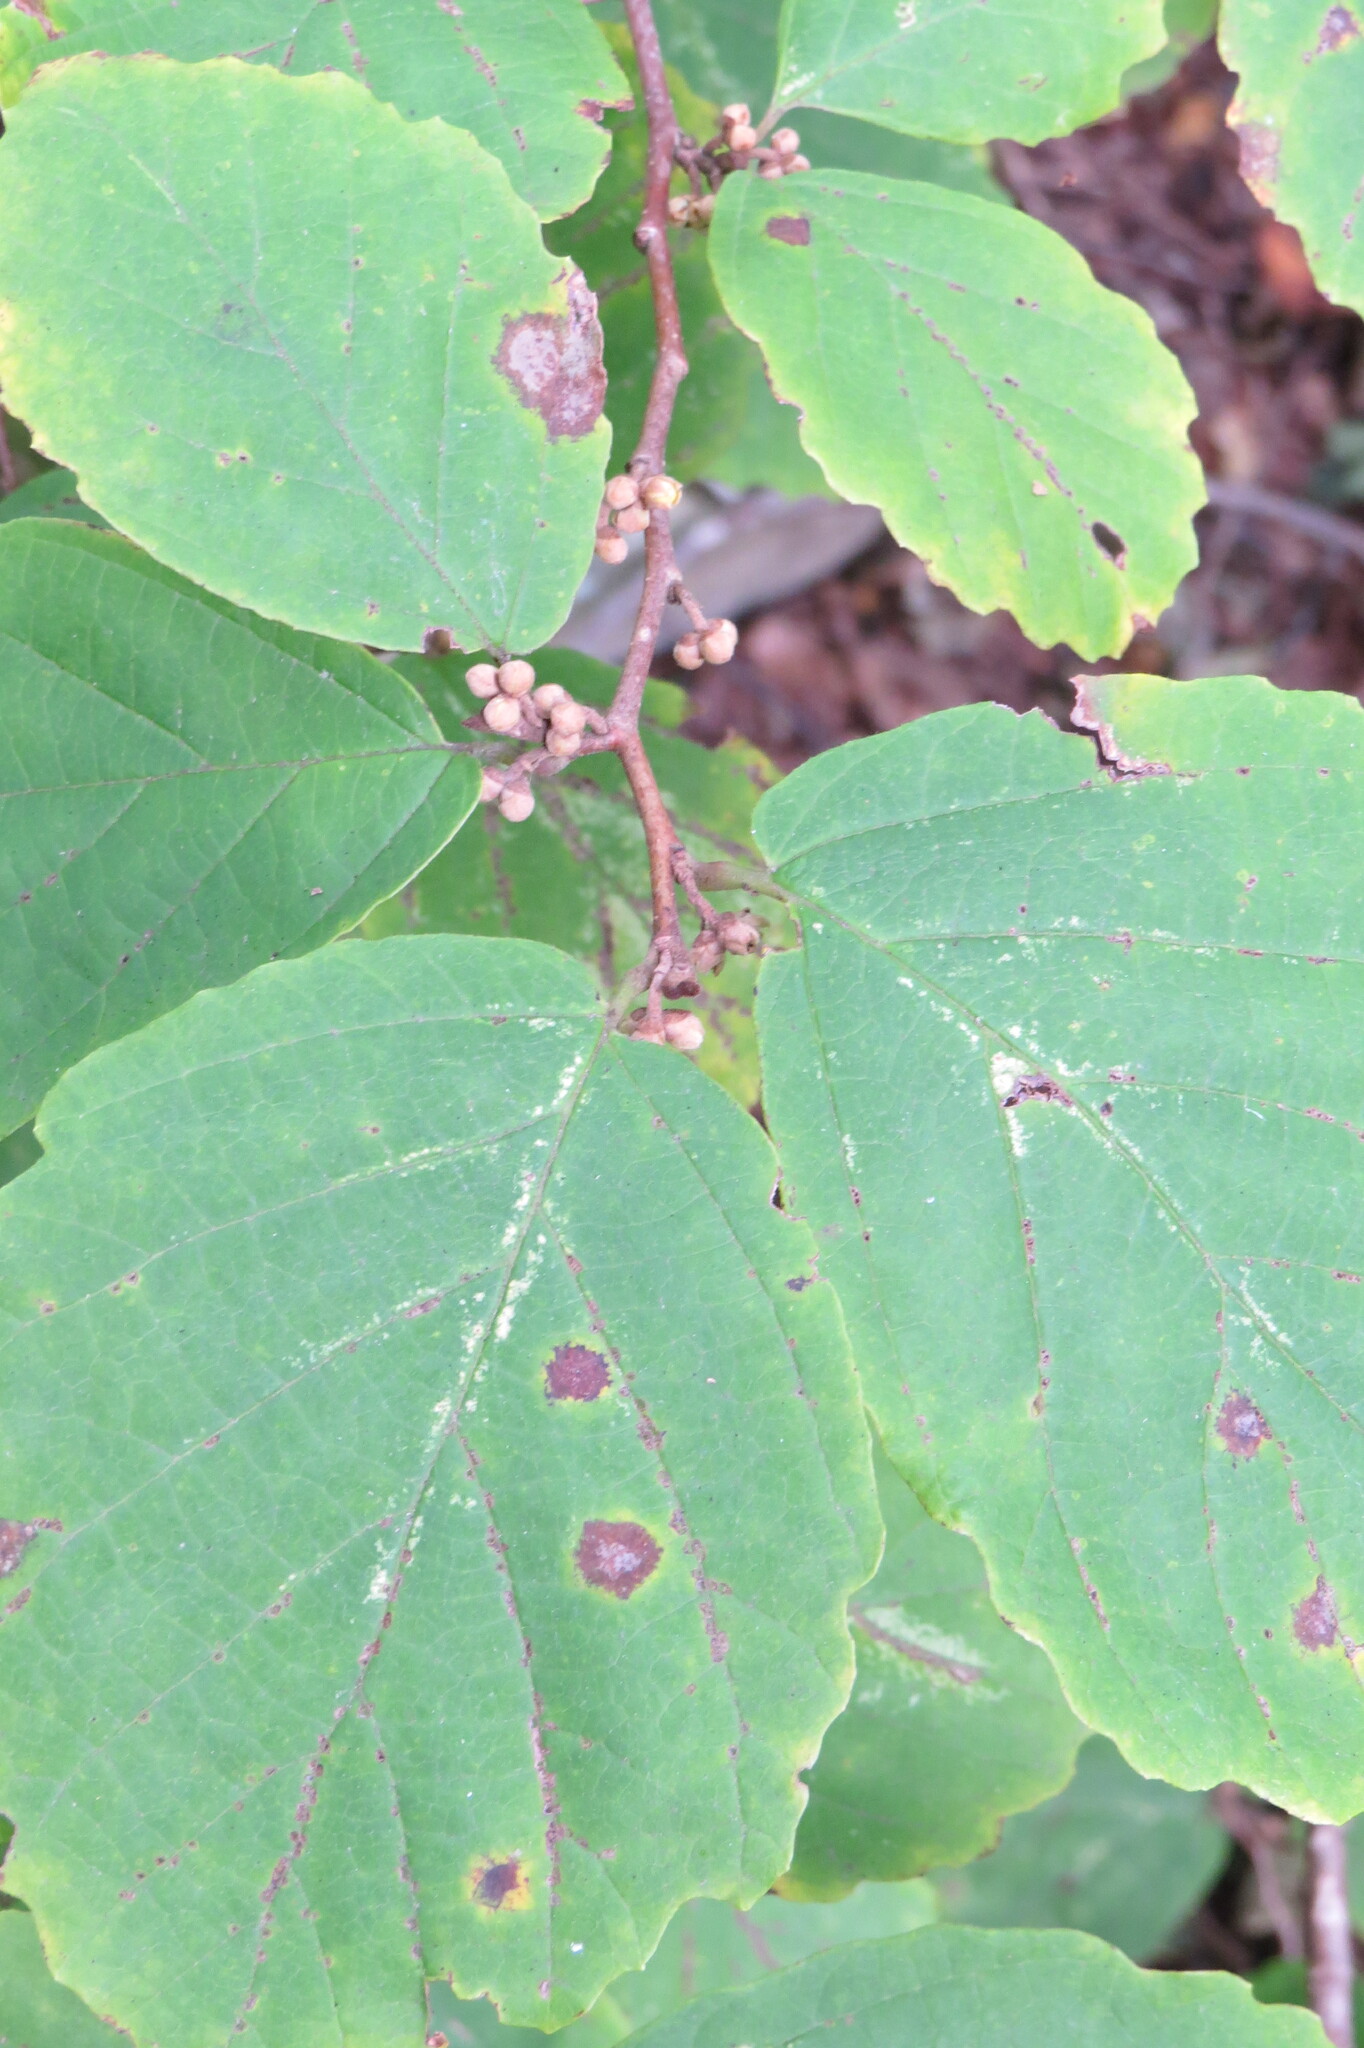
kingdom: Plantae
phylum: Tracheophyta
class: Magnoliopsida
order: Saxifragales
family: Hamamelidaceae
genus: Hamamelis
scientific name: Hamamelis virginiana
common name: Witch-hazel
